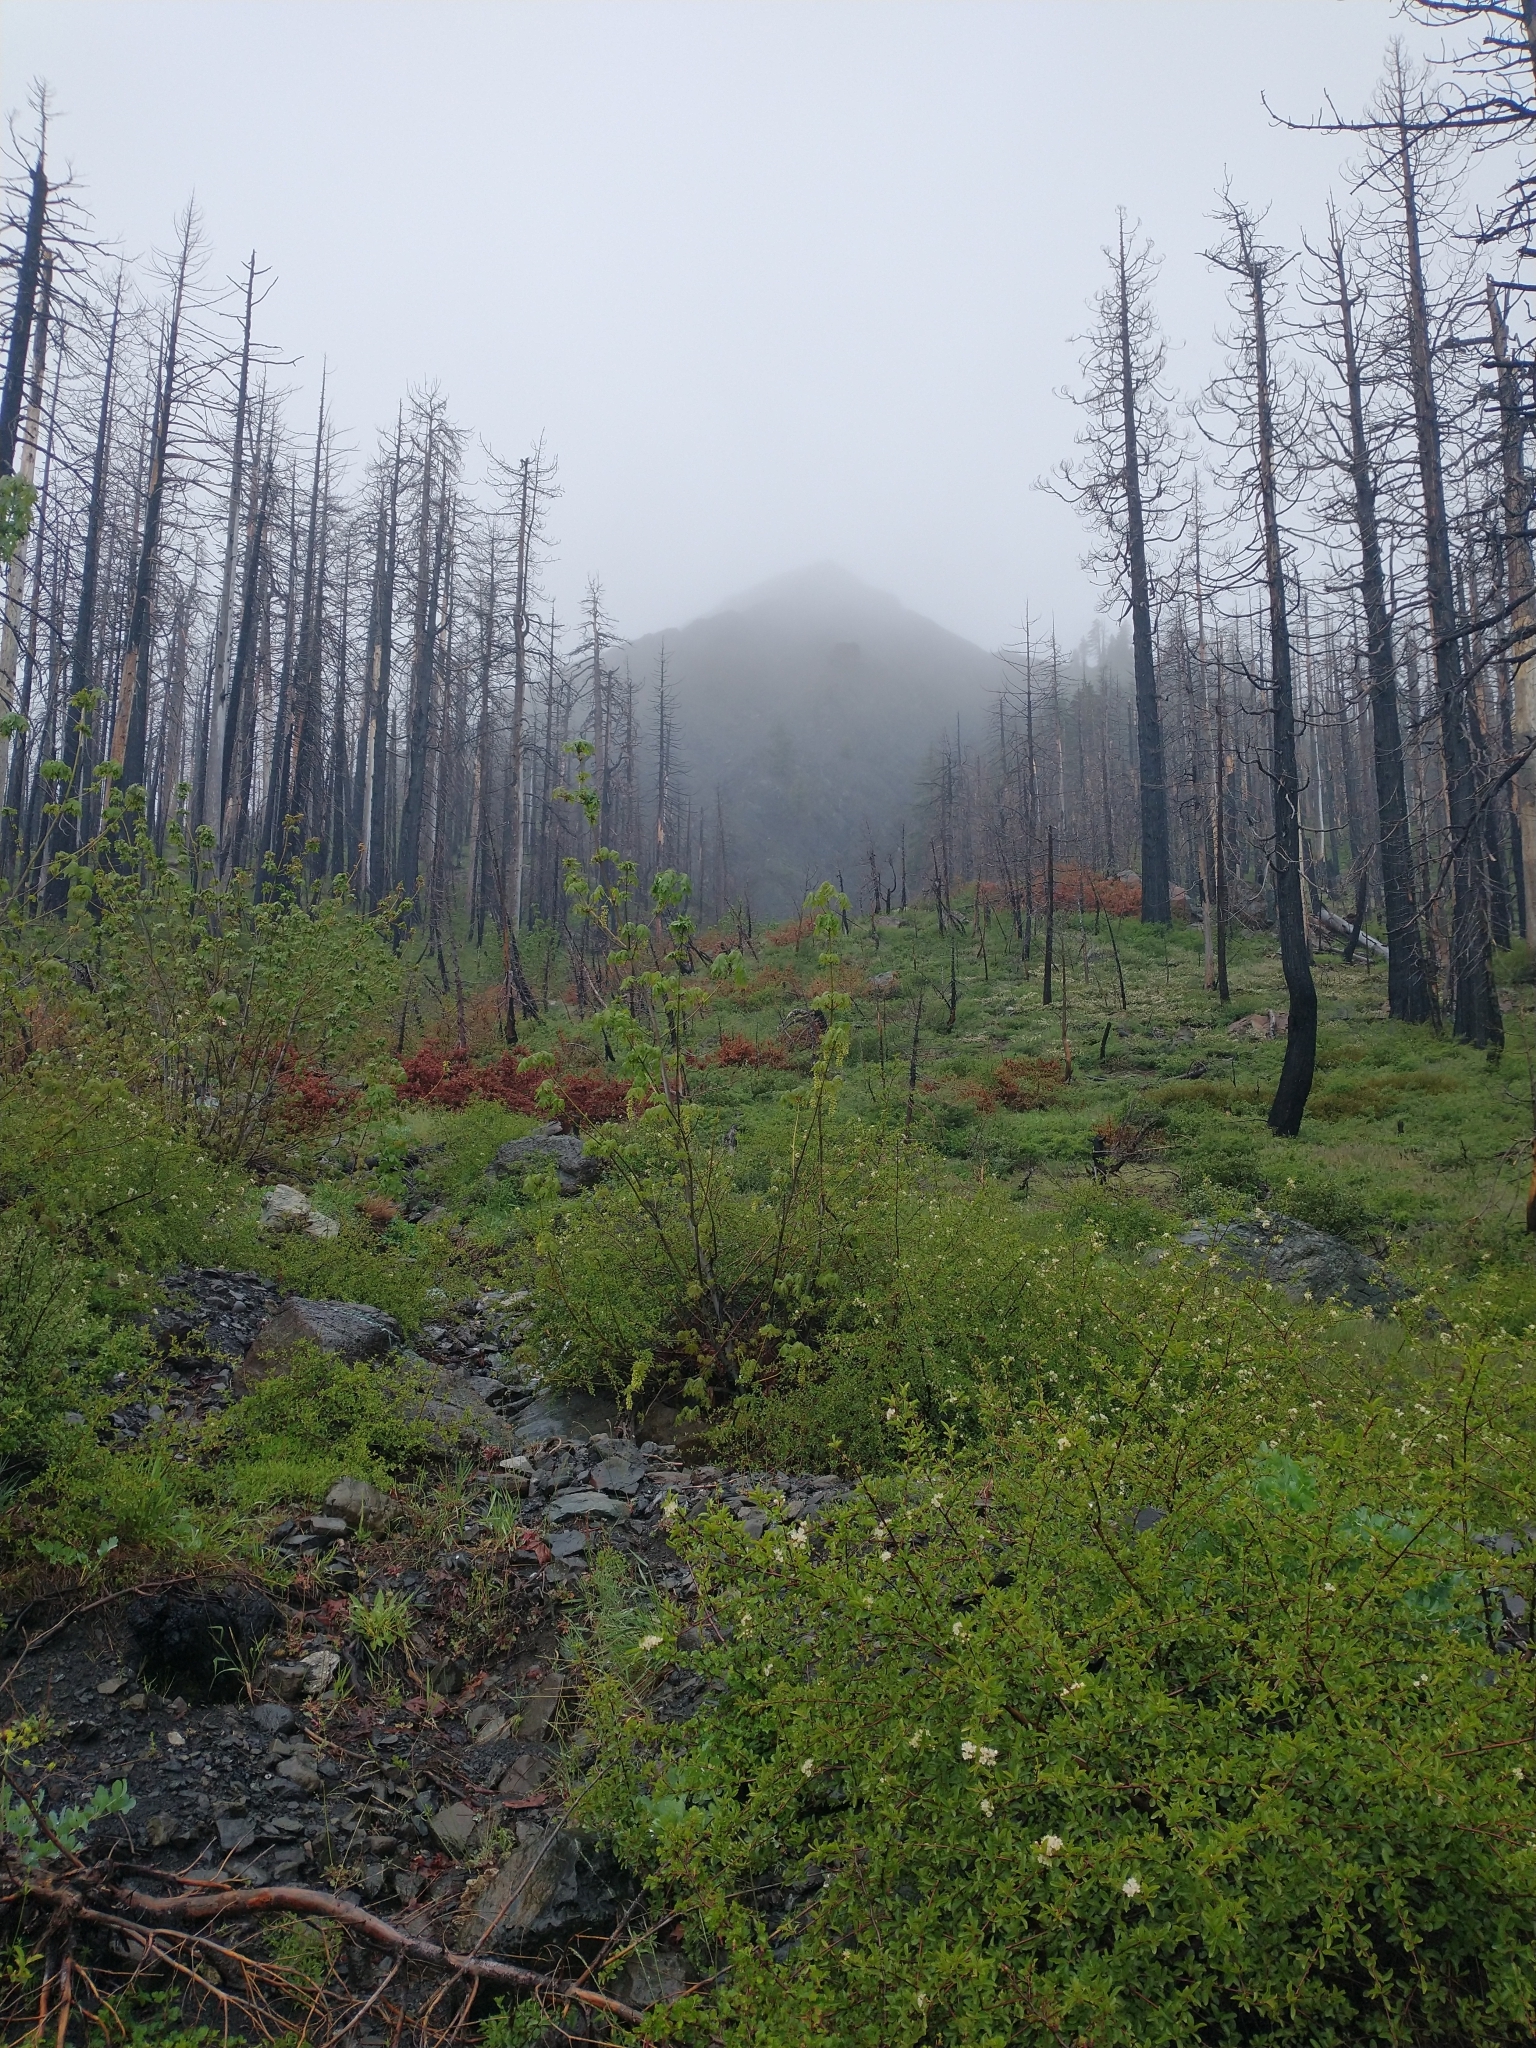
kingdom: Plantae
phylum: Tracheophyta
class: Magnoliopsida
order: Sapindales
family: Sapindaceae
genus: Acer
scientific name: Acer macrophyllum
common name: Oregon maple
